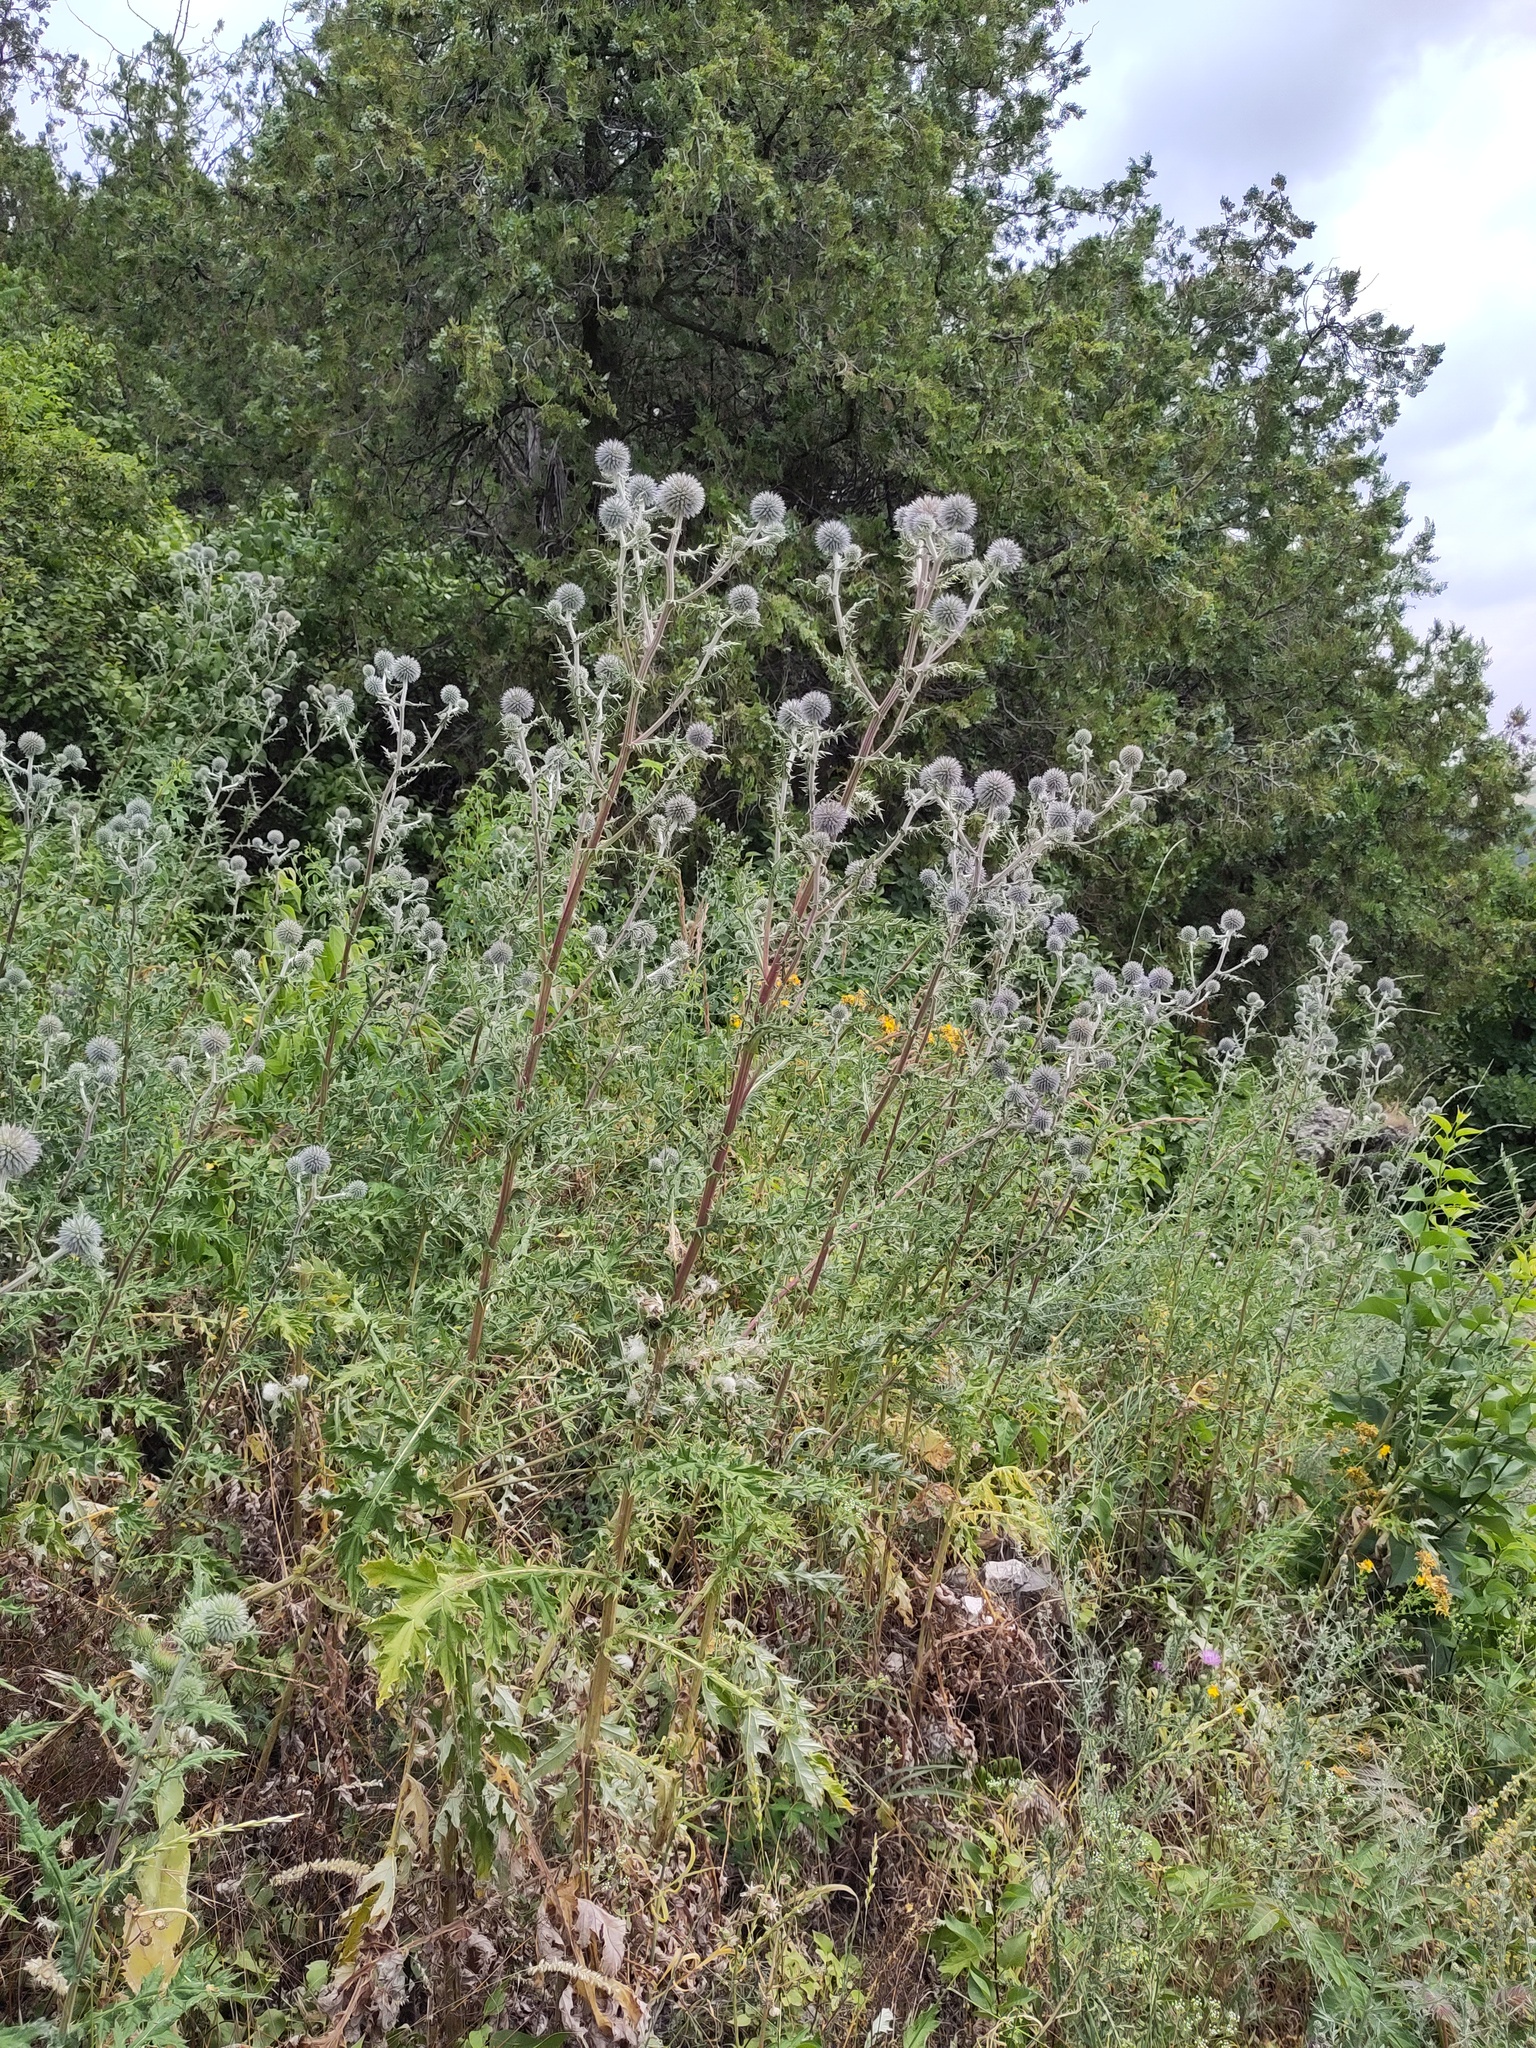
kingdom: Plantae
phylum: Tracheophyta
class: Magnoliopsida
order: Asterales
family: Asteraceae
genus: Echinops
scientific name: Echinops sphaerocephalus
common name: Glandular globe-thistle
